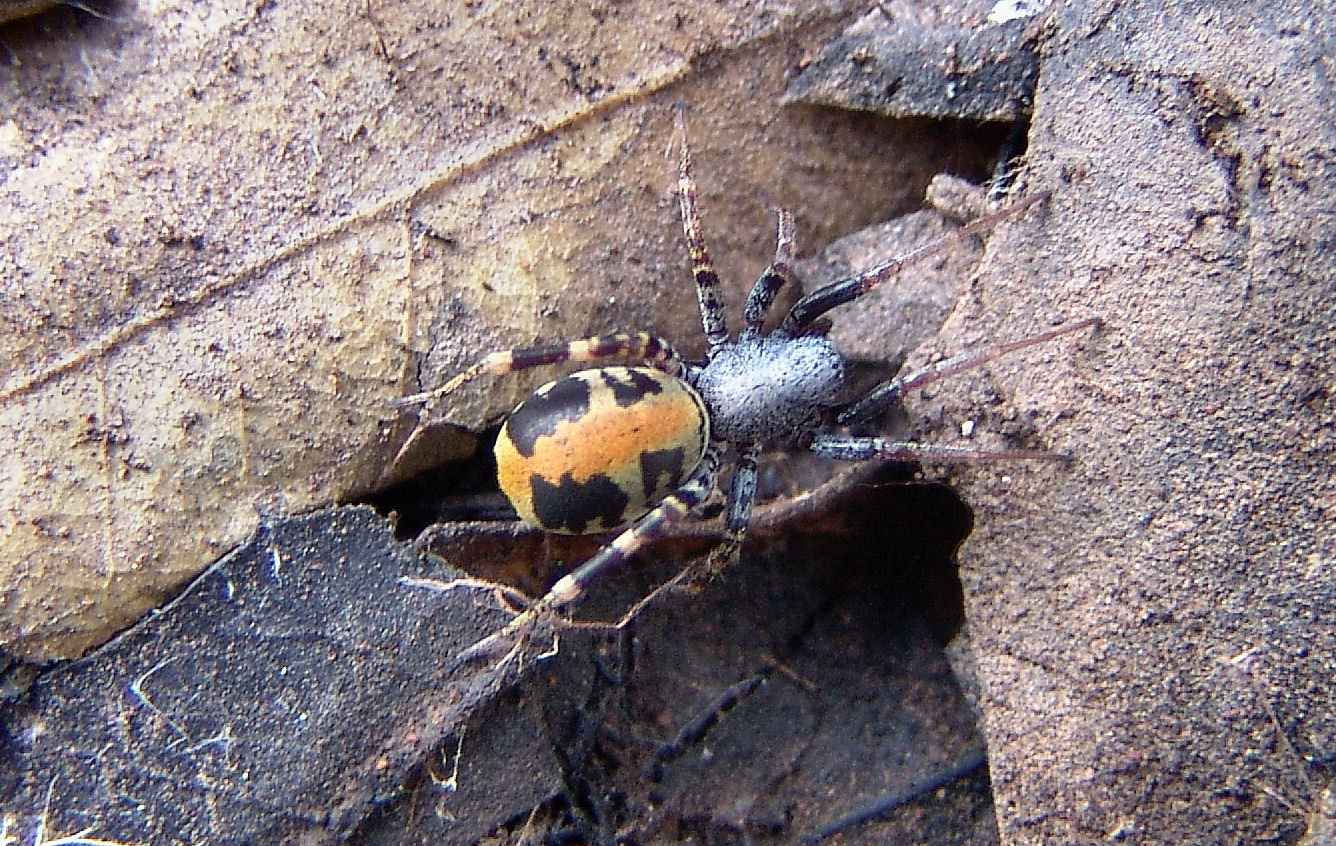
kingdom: Animalia
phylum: Arthropoda
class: Arachnida
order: Araneae
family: Corinnidae
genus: Castianeira
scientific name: Castianeira dorsata
